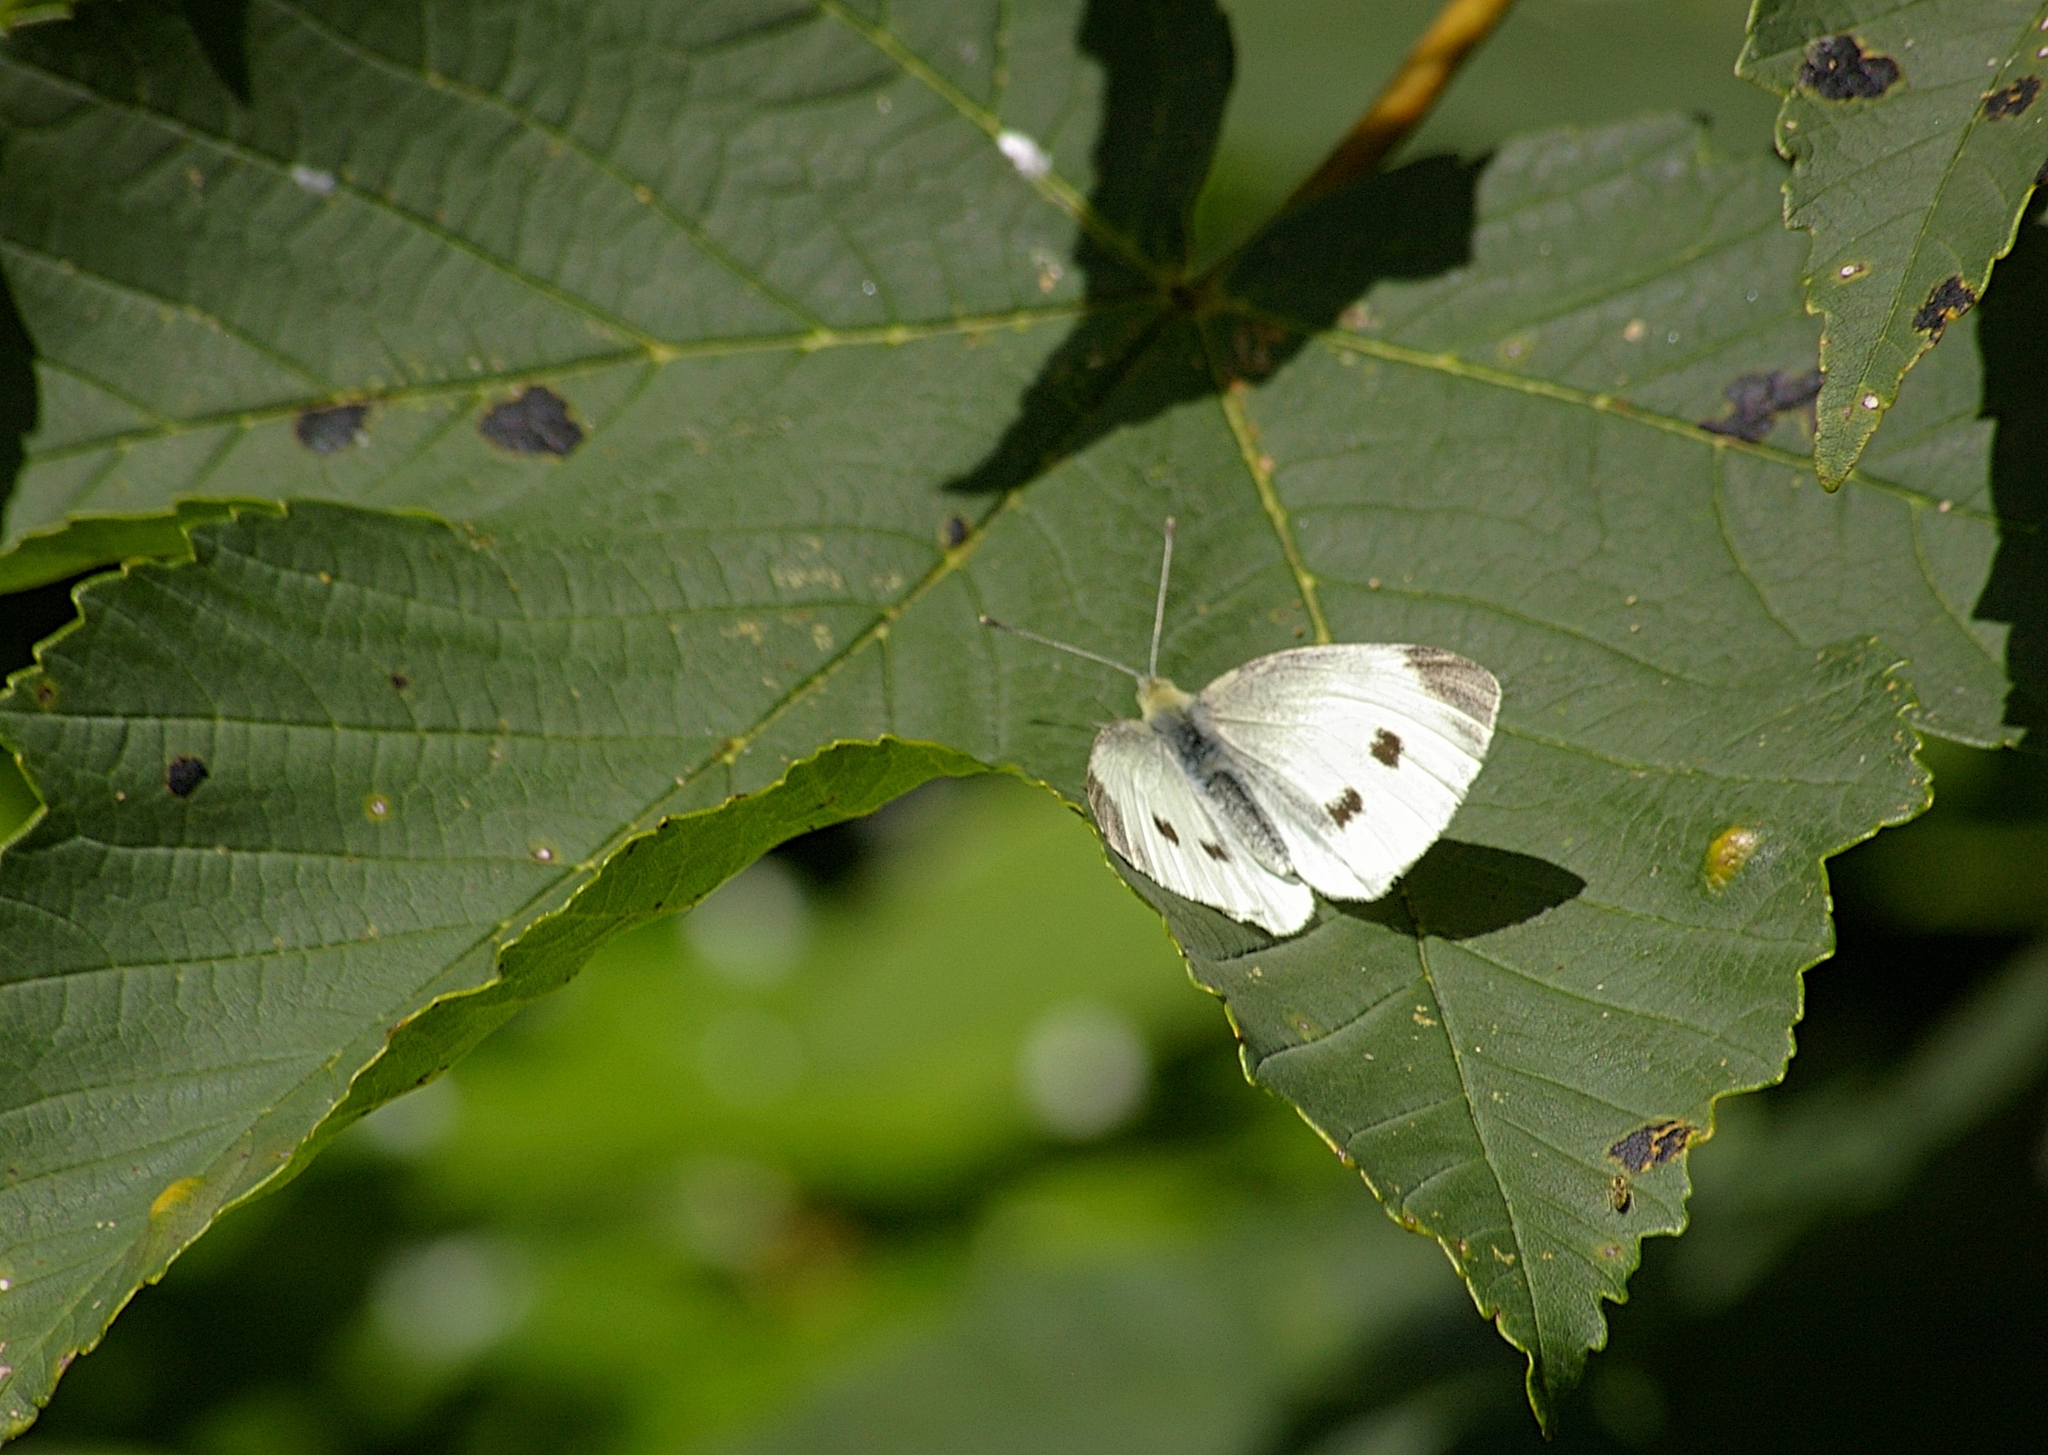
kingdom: Fungi
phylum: Ascomycota
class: Leotiomycetes
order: Rhytismatales
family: Rhytismataceae
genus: Rhytisma
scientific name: Rhytisma acerinum
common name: European tar spot
